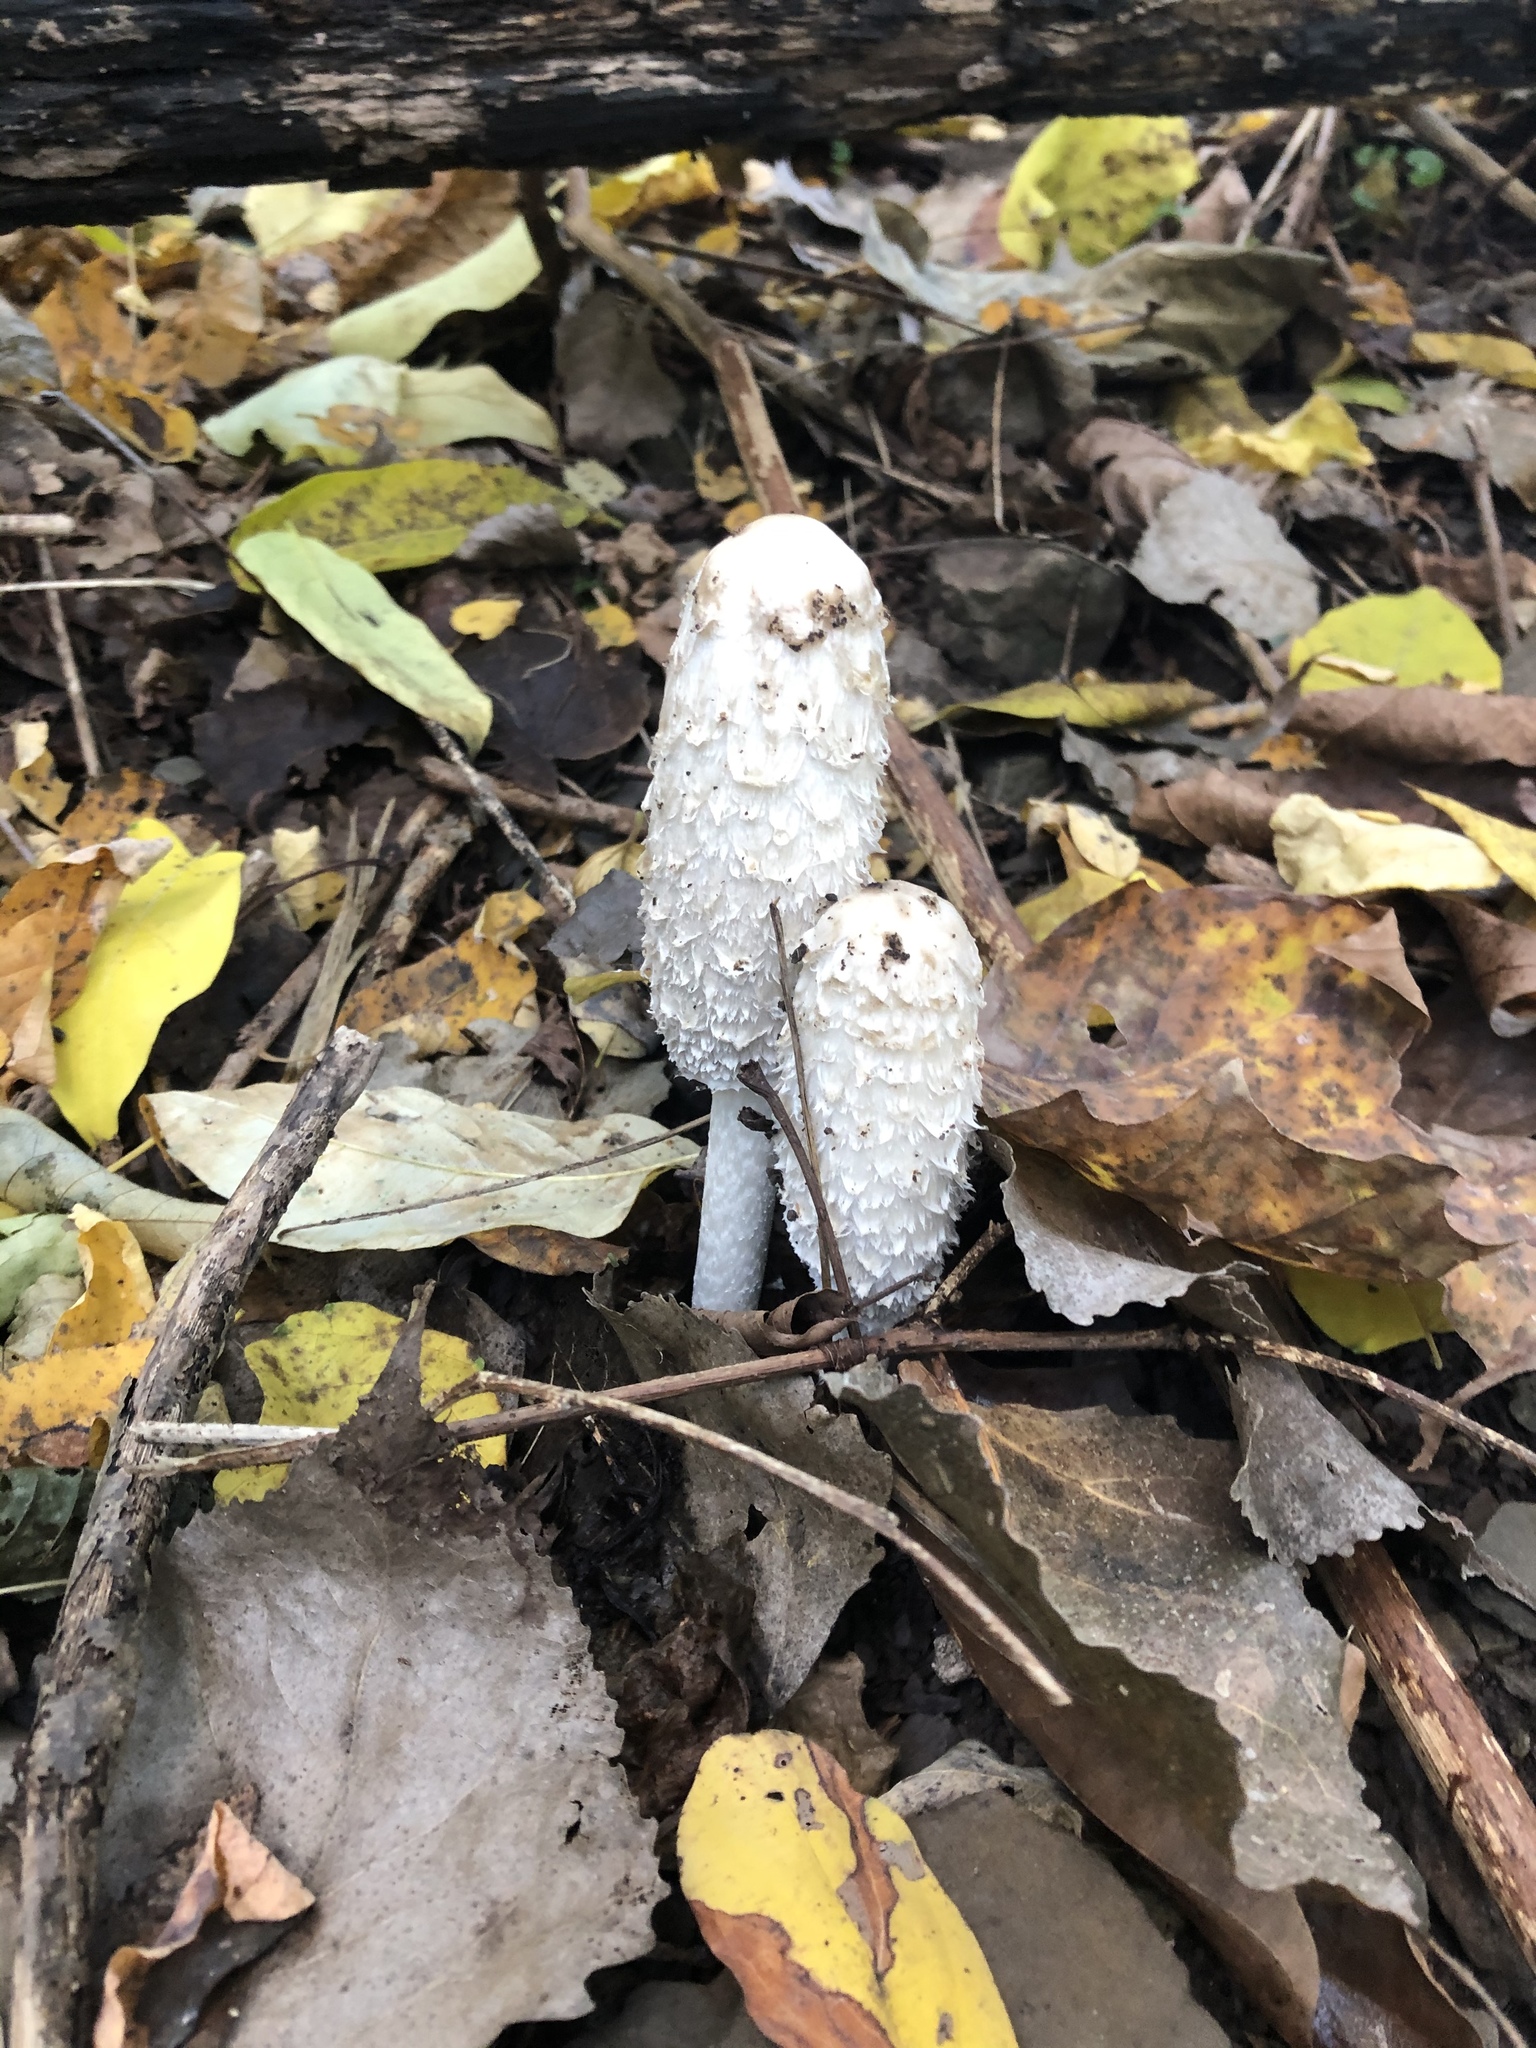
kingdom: Fungi
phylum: Basidiomycota
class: Agaricomycetes
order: Agaricales
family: Agaricaceae
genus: Coprinus
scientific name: Coprinus comatus
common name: Lawyer's wig
